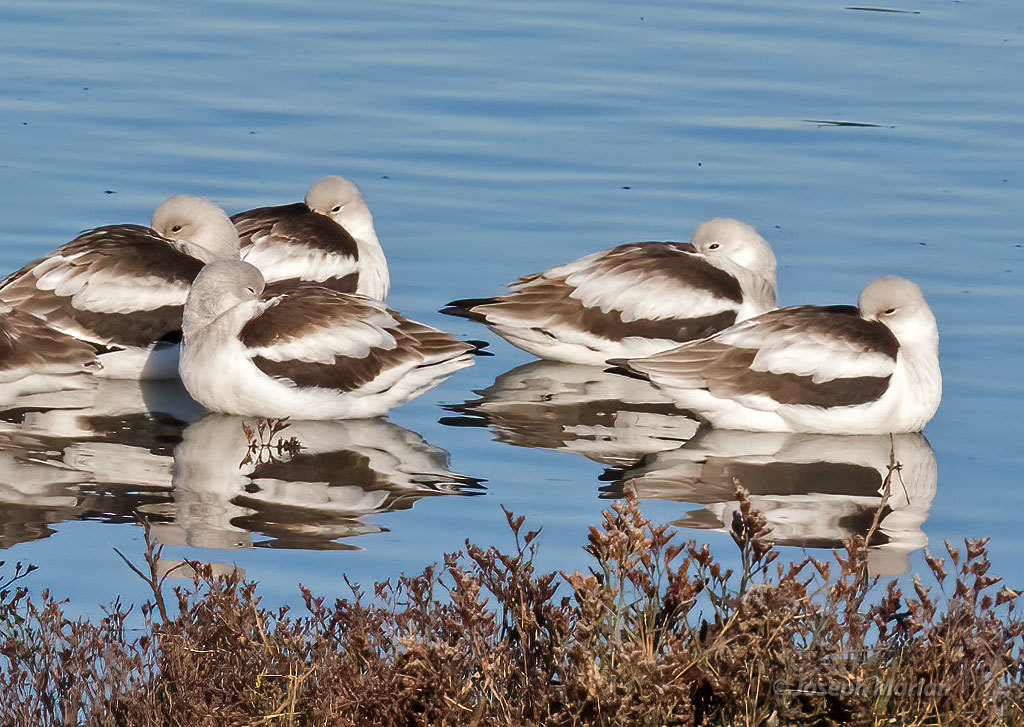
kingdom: Animalia
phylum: Chordata
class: Aves
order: Charadriiformes
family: Recurvirostridae
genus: Recurvirostra
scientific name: Recurvirostra americana
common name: American avocet
